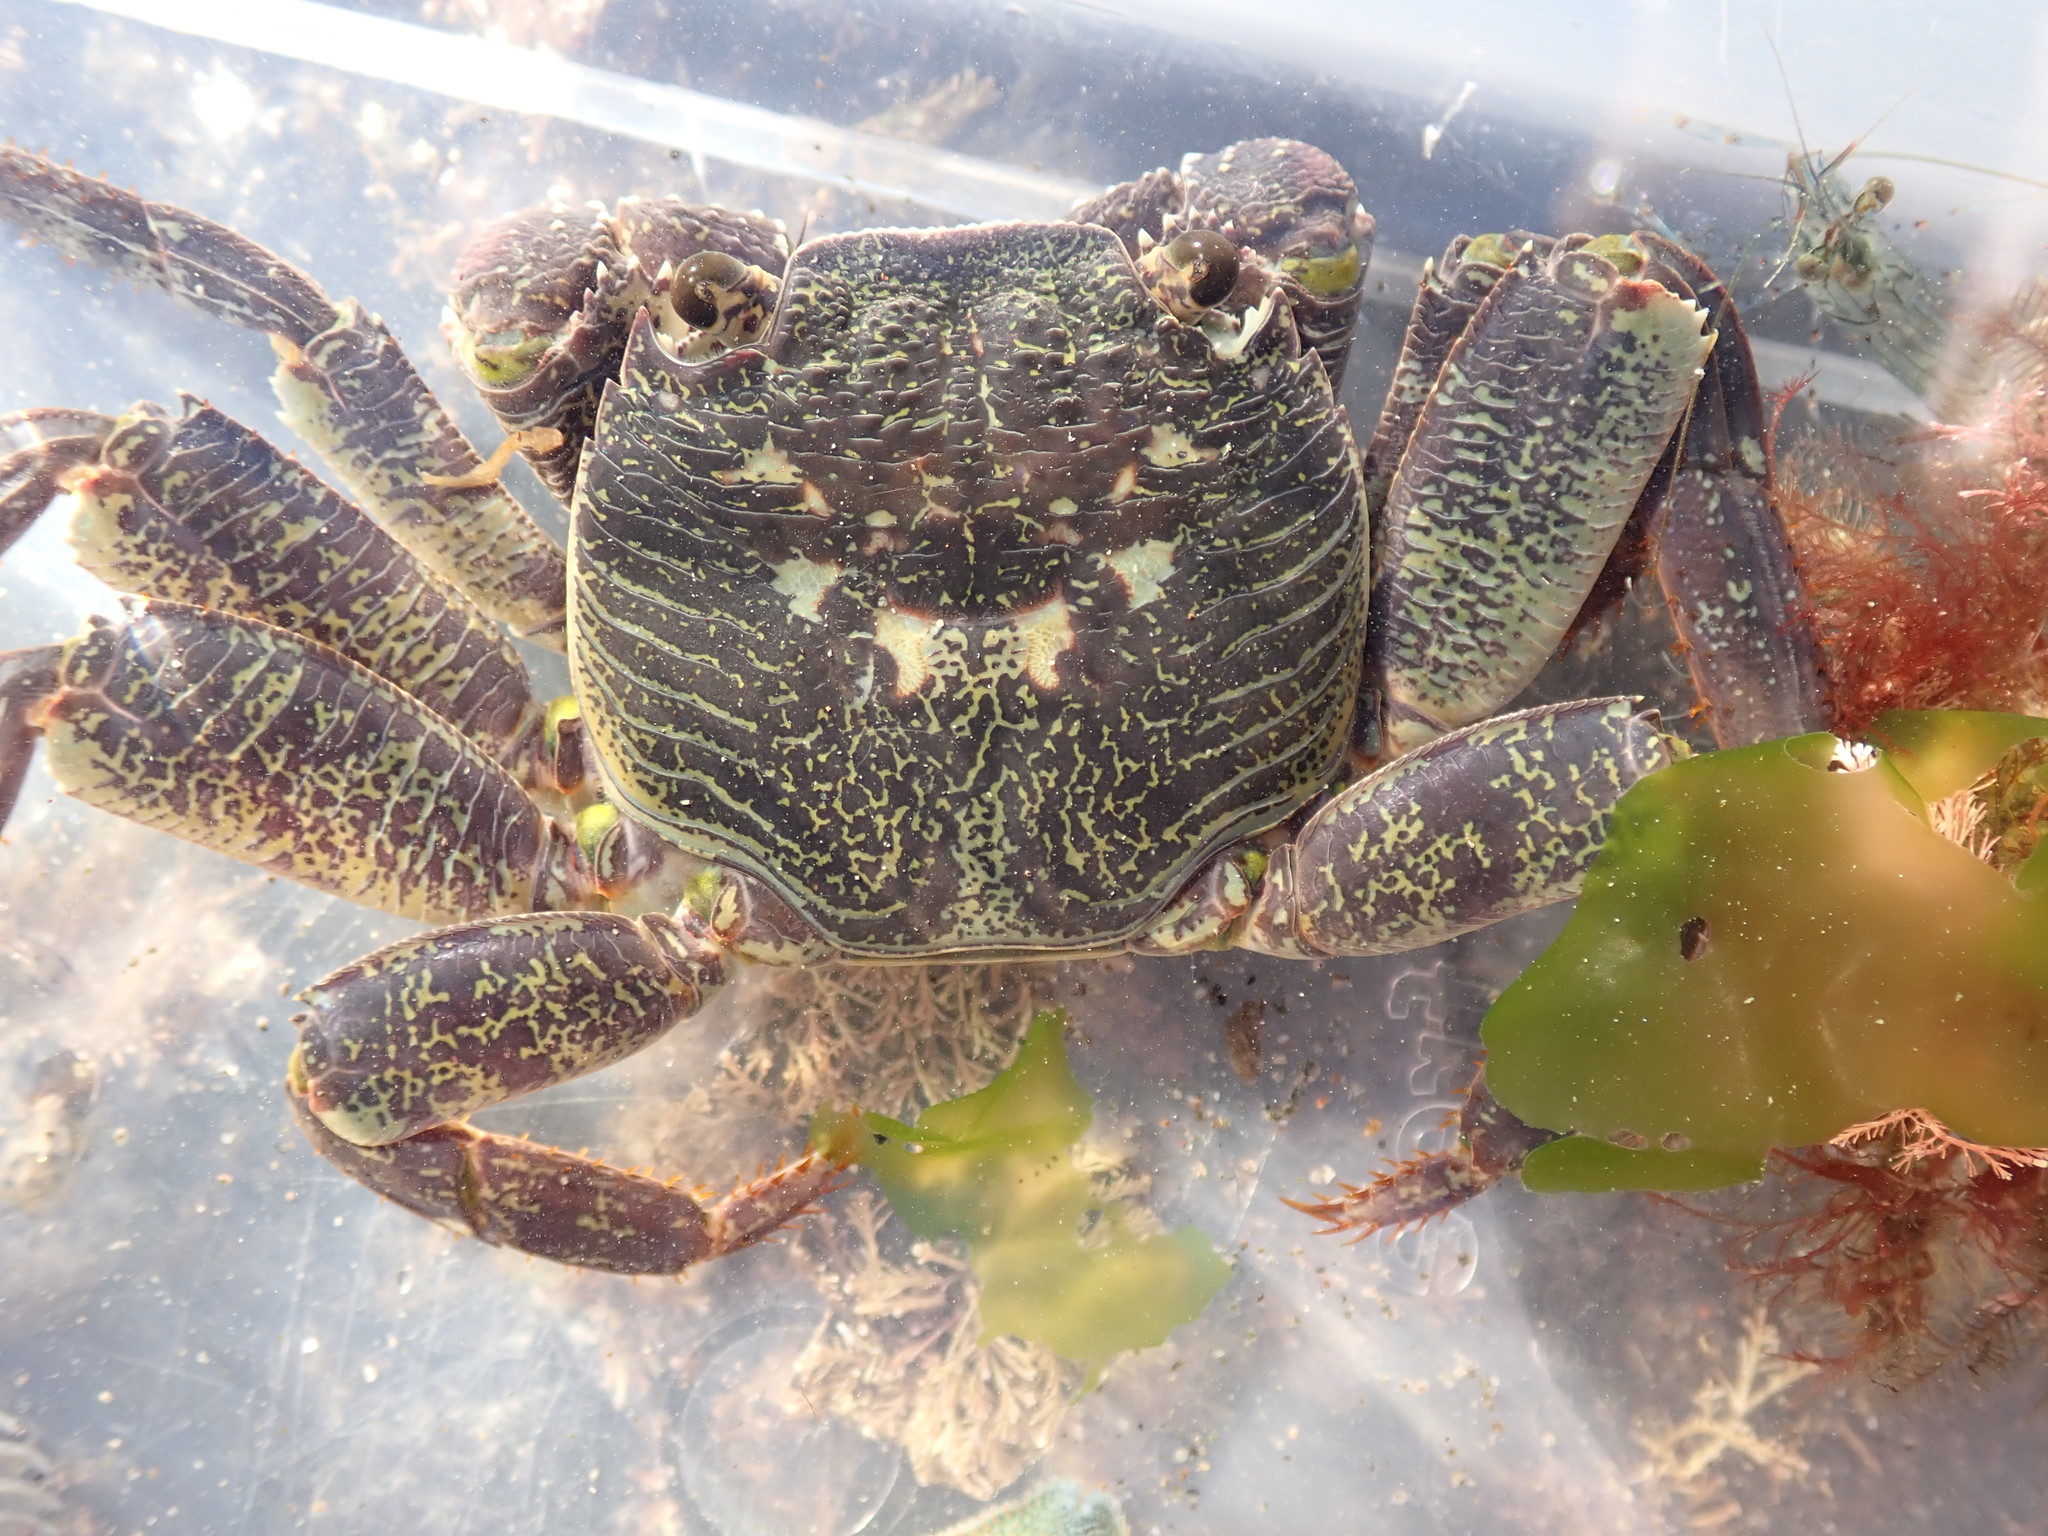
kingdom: Animalia
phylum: Arthropoda
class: Malacostraca
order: Decapoda
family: Grapsidae
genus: Leptograpsus
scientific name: Leptograpsus variegatus
